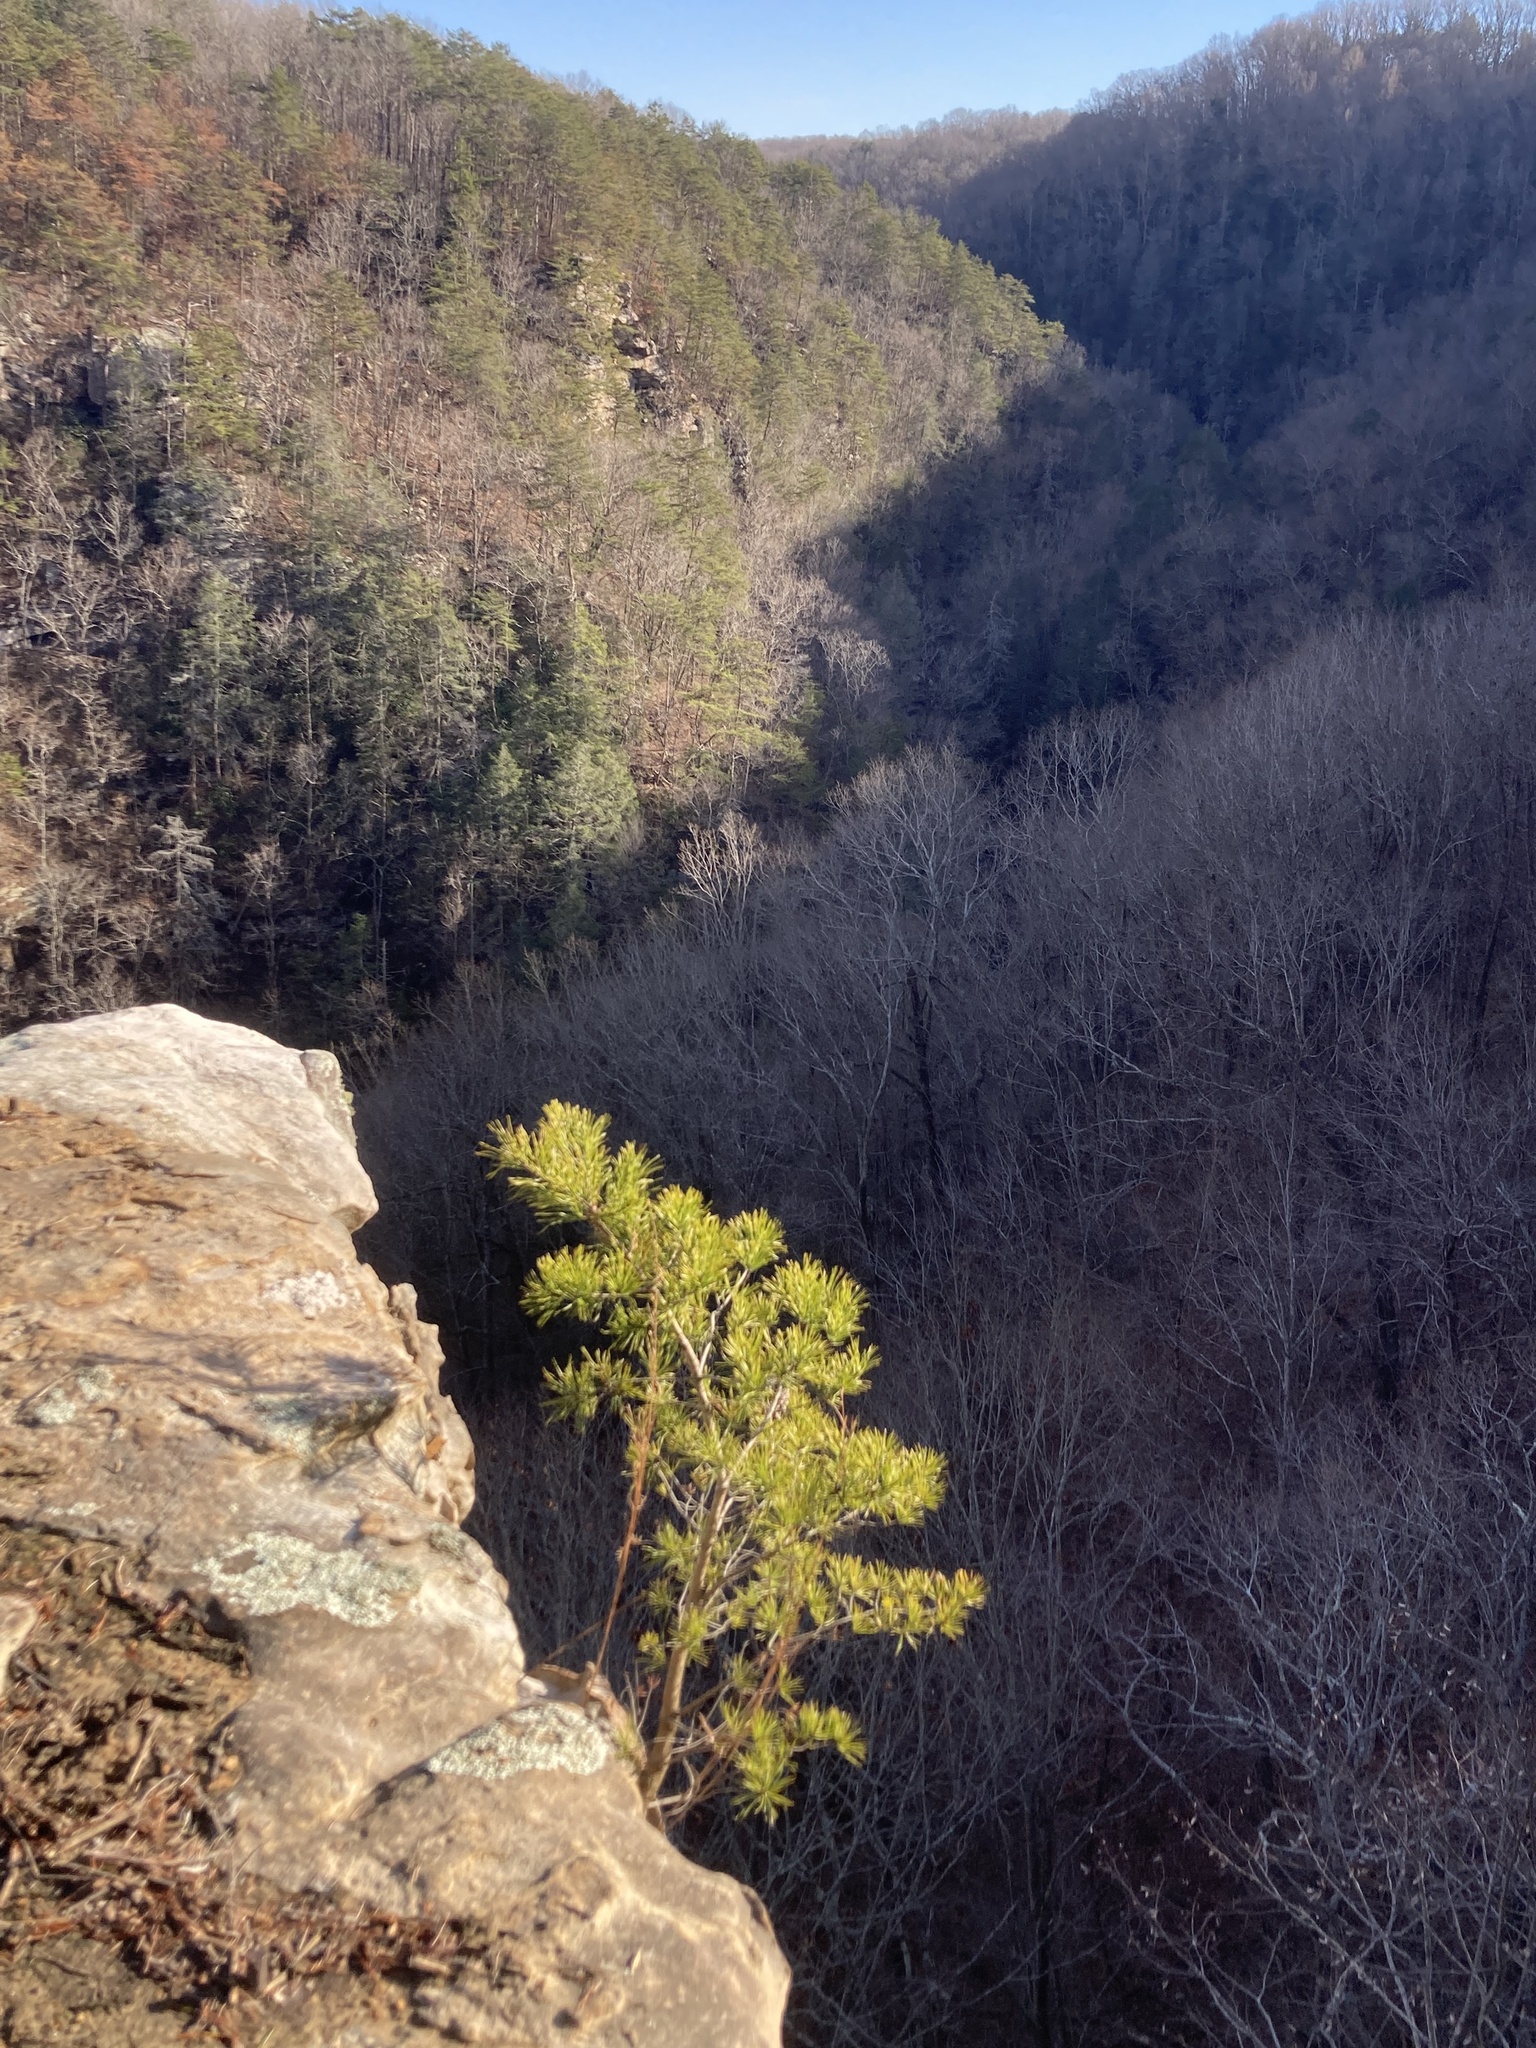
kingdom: Plantae
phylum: Tracheophyta
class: Pinopsida
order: Pinales
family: Pinaceae
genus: Pinus
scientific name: Pinus virginiana
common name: Scrub pine
